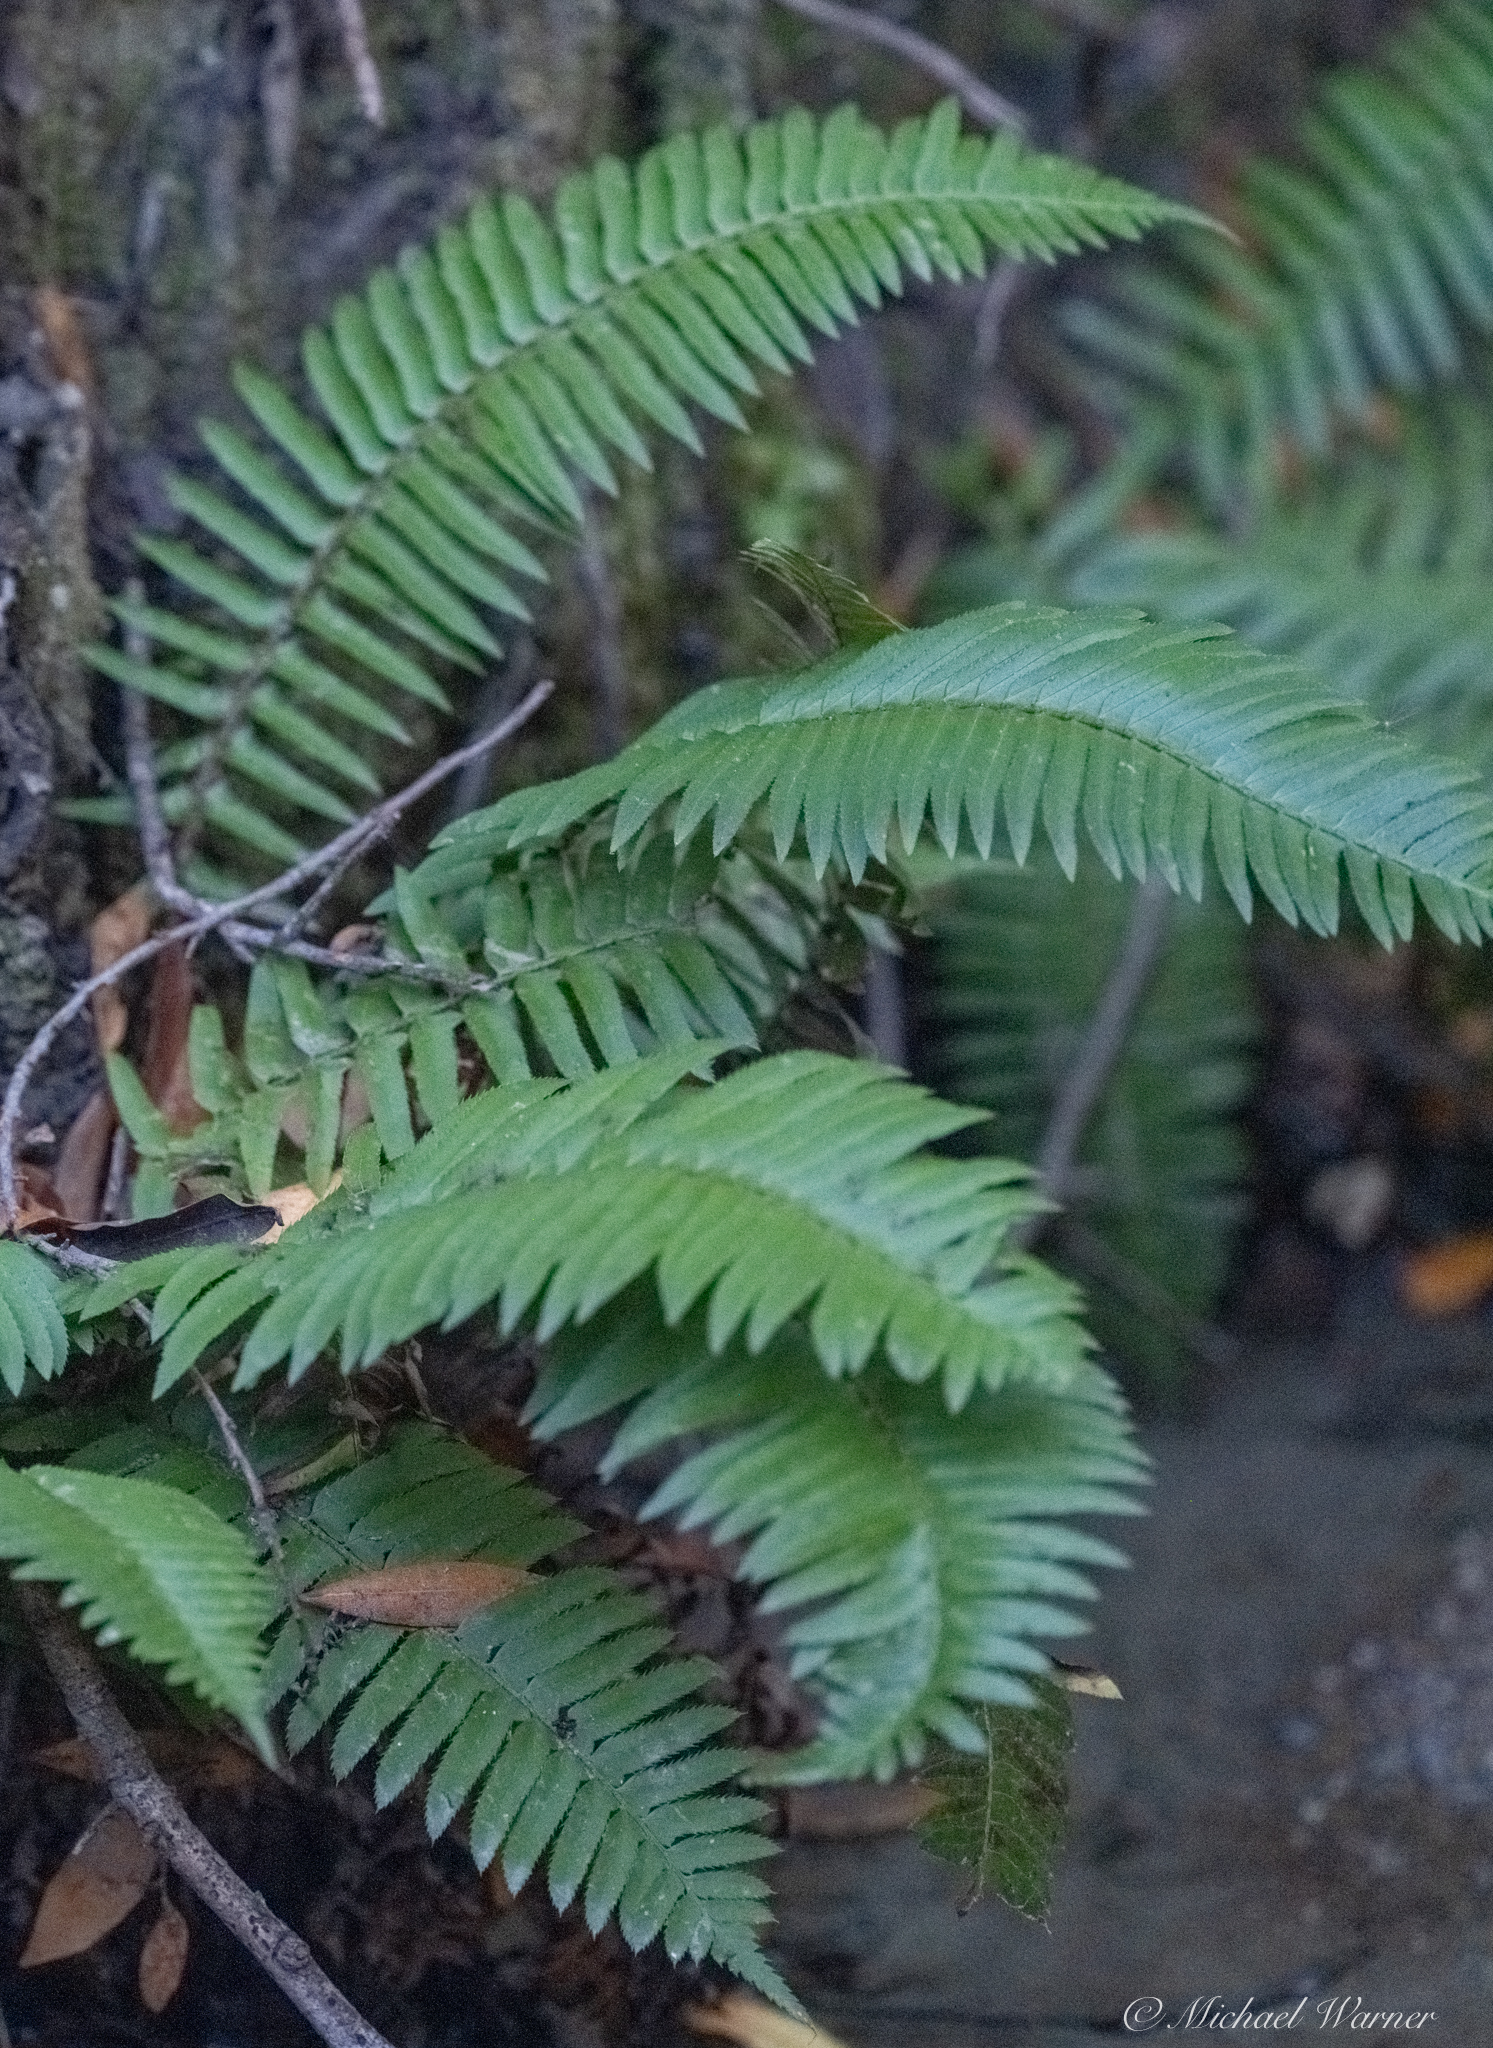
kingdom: Plantae
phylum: Tracheophyta
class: Polypodiopsida
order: Polypodiales
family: Dryopteridaceae
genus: Polystichum
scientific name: Polystichum munitum
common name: Western sword-fern
